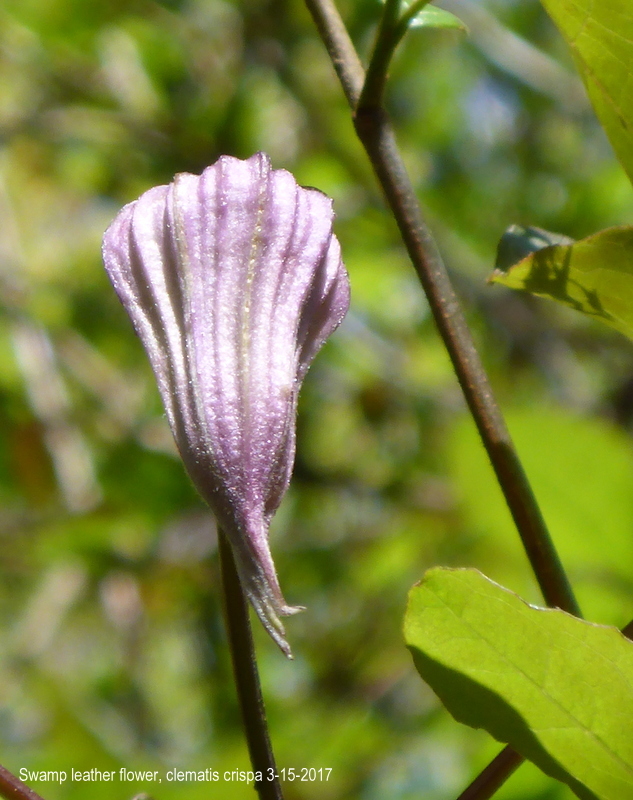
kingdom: Plantae
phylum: Tracheophyta
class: Magnoliopsida
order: Ranunculales
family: Ranunculaceae
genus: Clematis
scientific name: Clematis crispa
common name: Curly clematis
